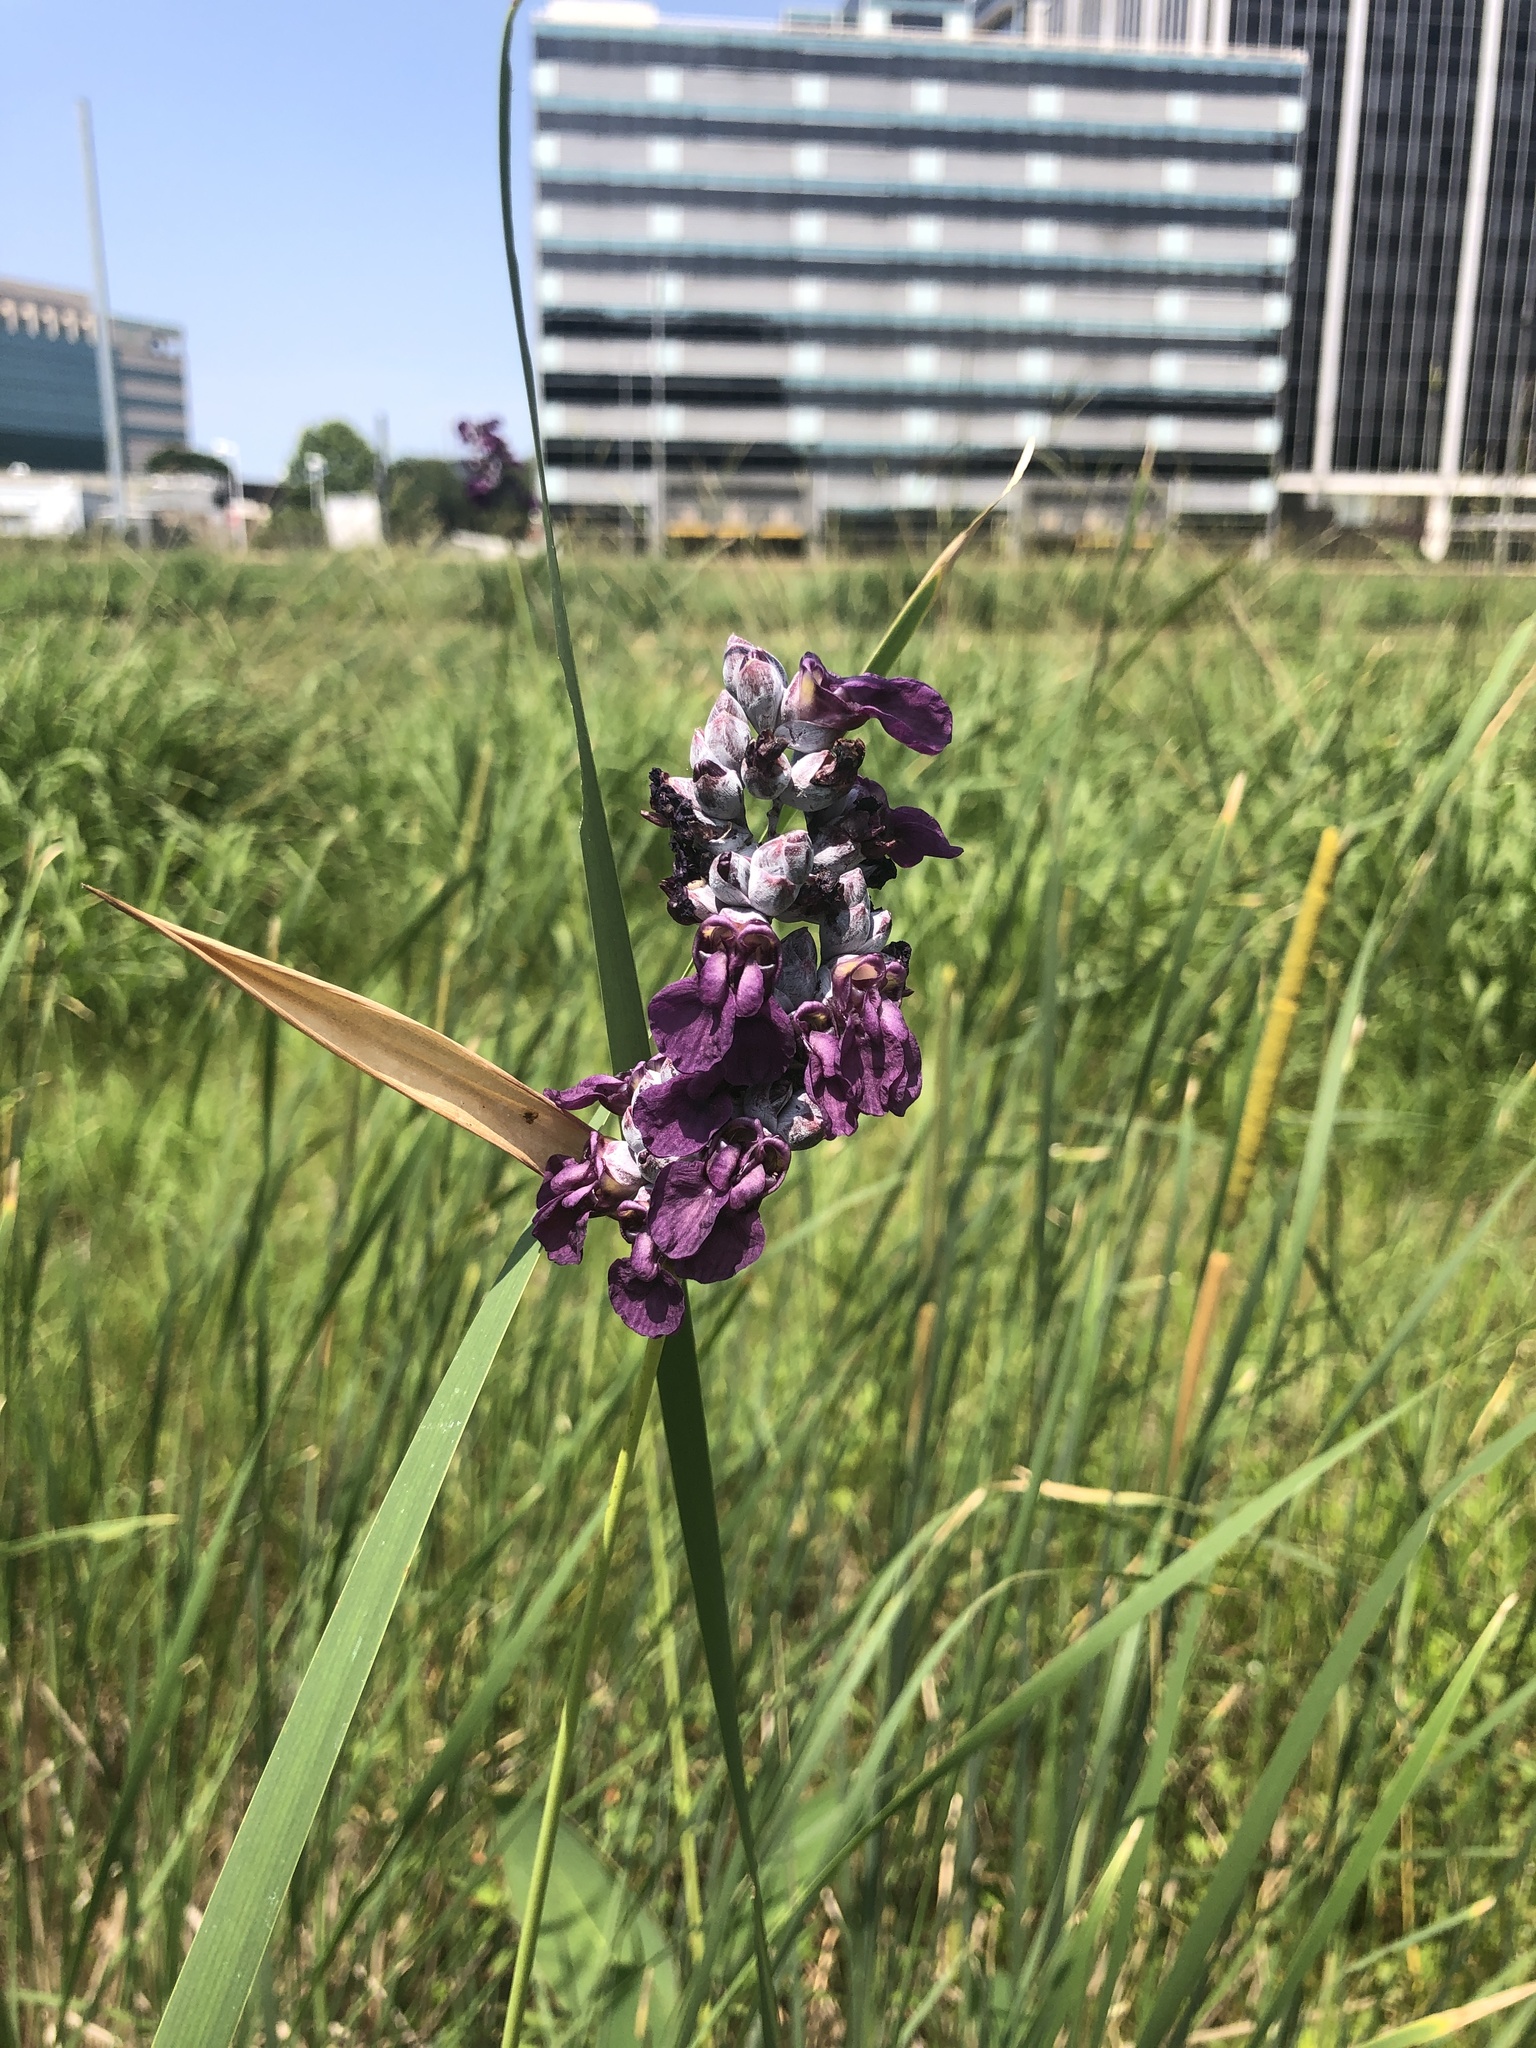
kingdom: Plantae
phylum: Tracheophyta
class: Liliopsida
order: Zingiberales
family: Marantaceae
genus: Thalia
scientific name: Thalia dealbata
